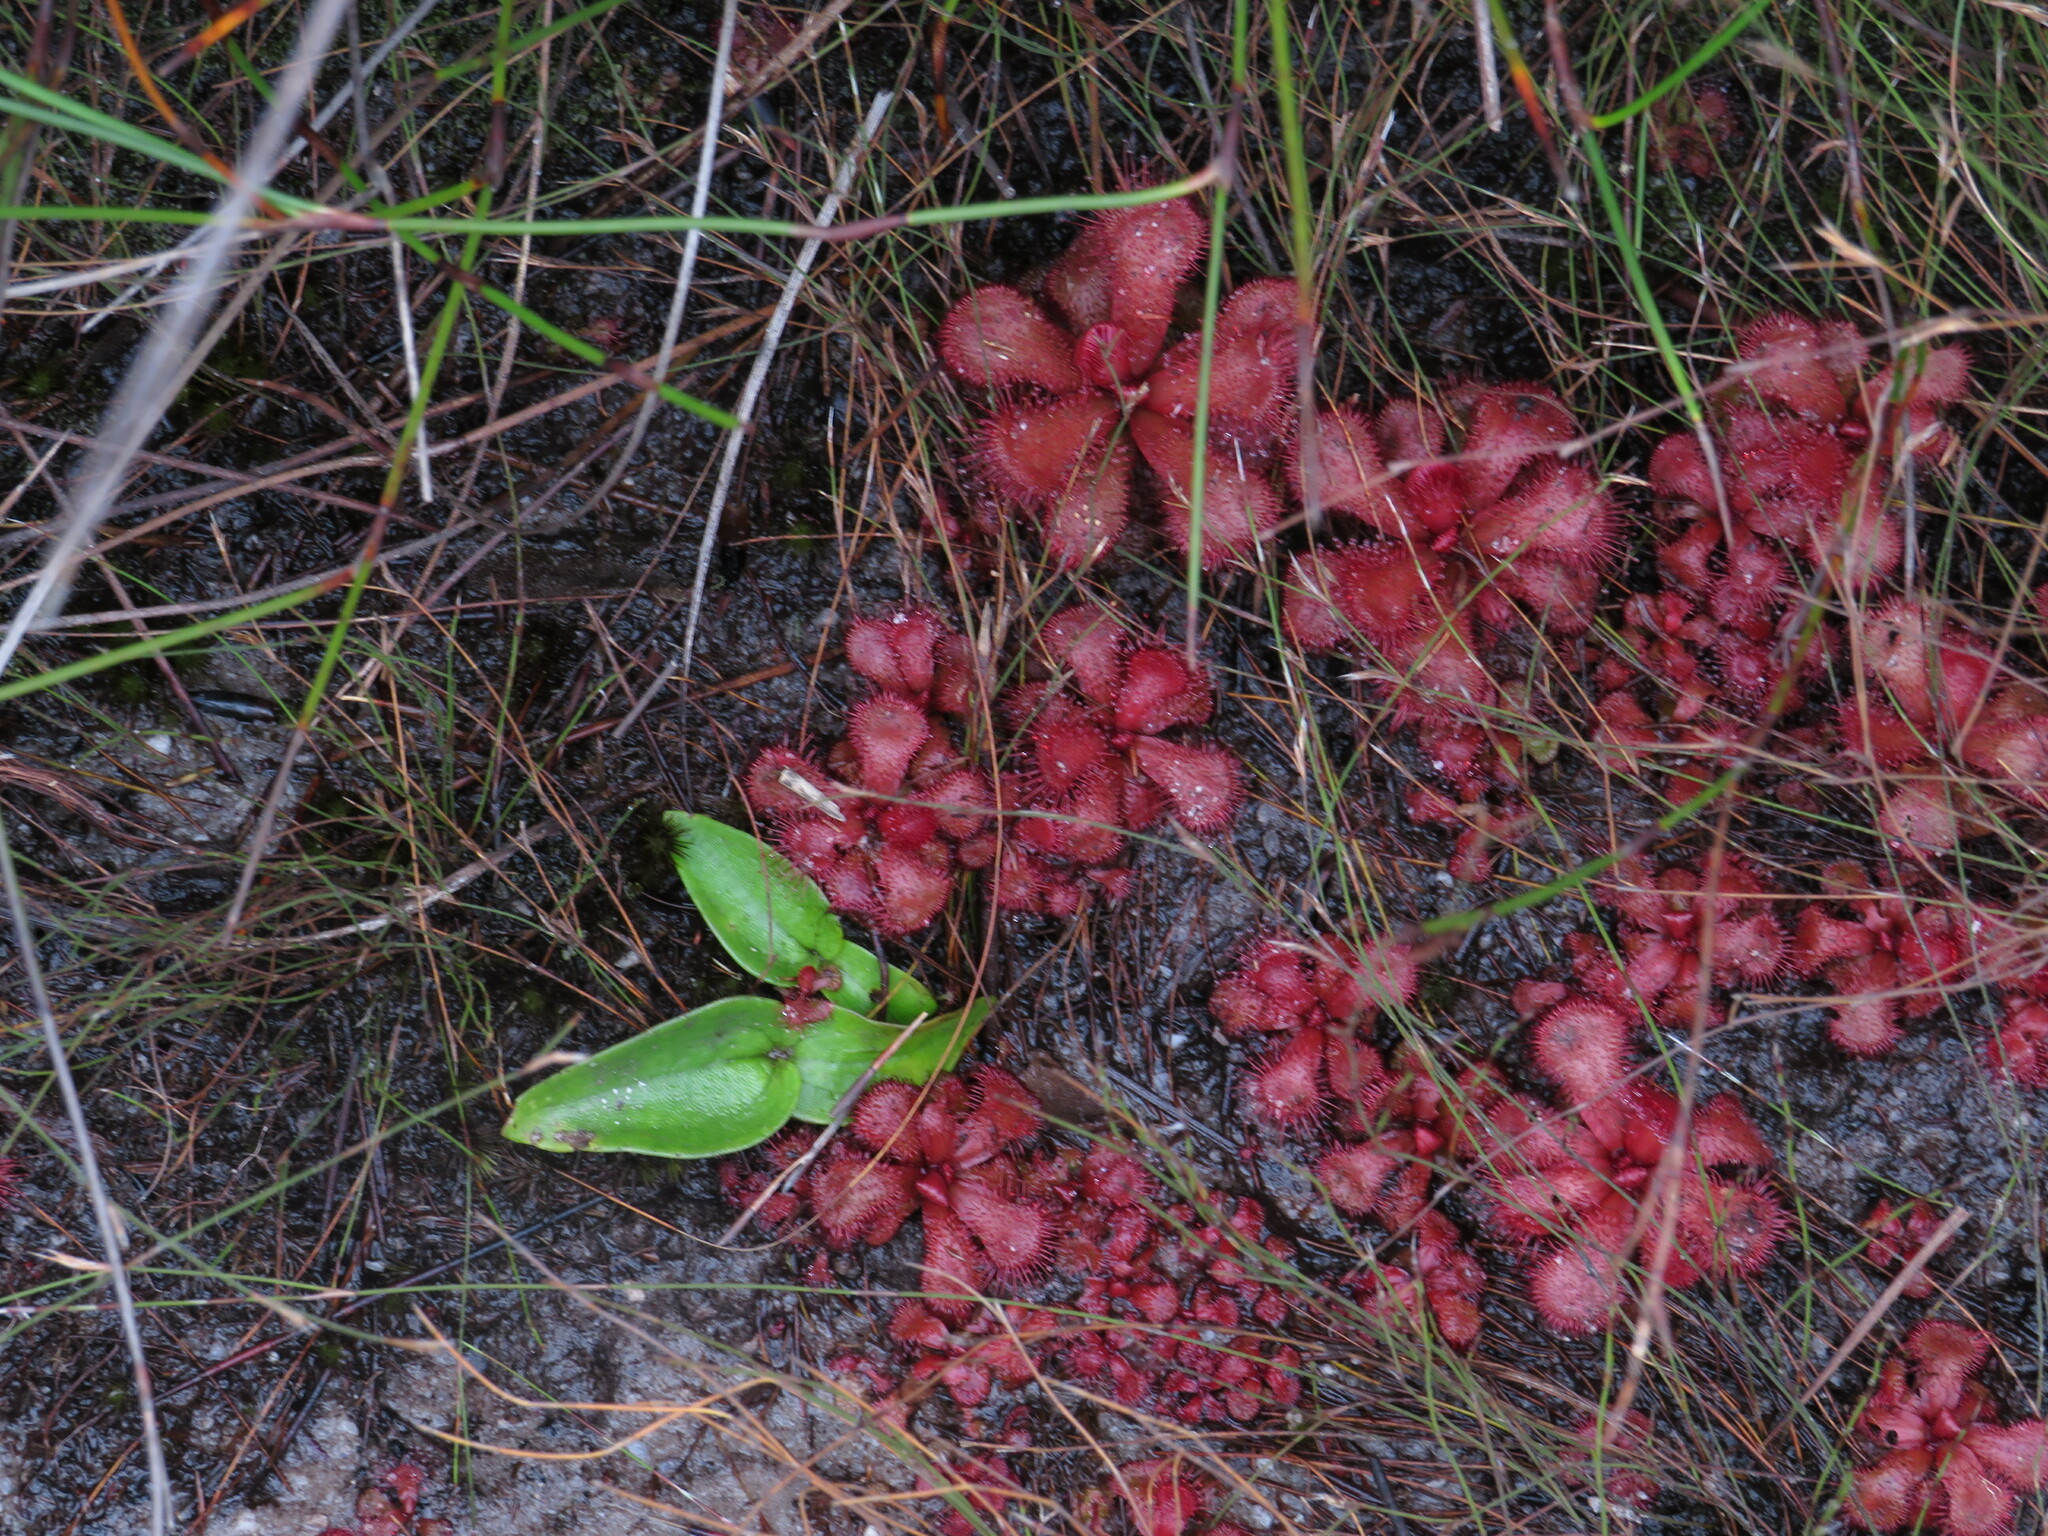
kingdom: Plantae
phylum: Tracheophyta
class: Magnoliopsida
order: Caryophyllales
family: Droseraceae
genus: Drosera
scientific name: Drosera slackii
